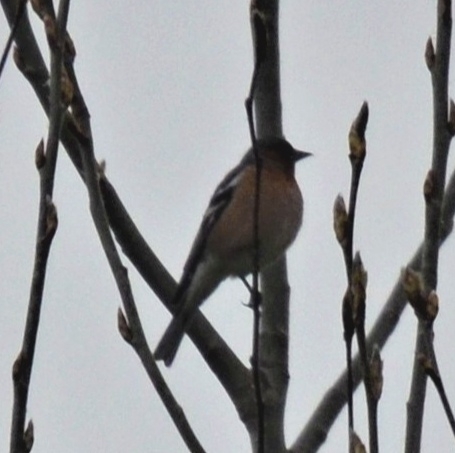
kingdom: Animalia
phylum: Chordata
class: Aves
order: Passeriformes
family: Fringillidae
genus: Fringilla
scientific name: Fringilla coelebs
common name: Common chaffinch
